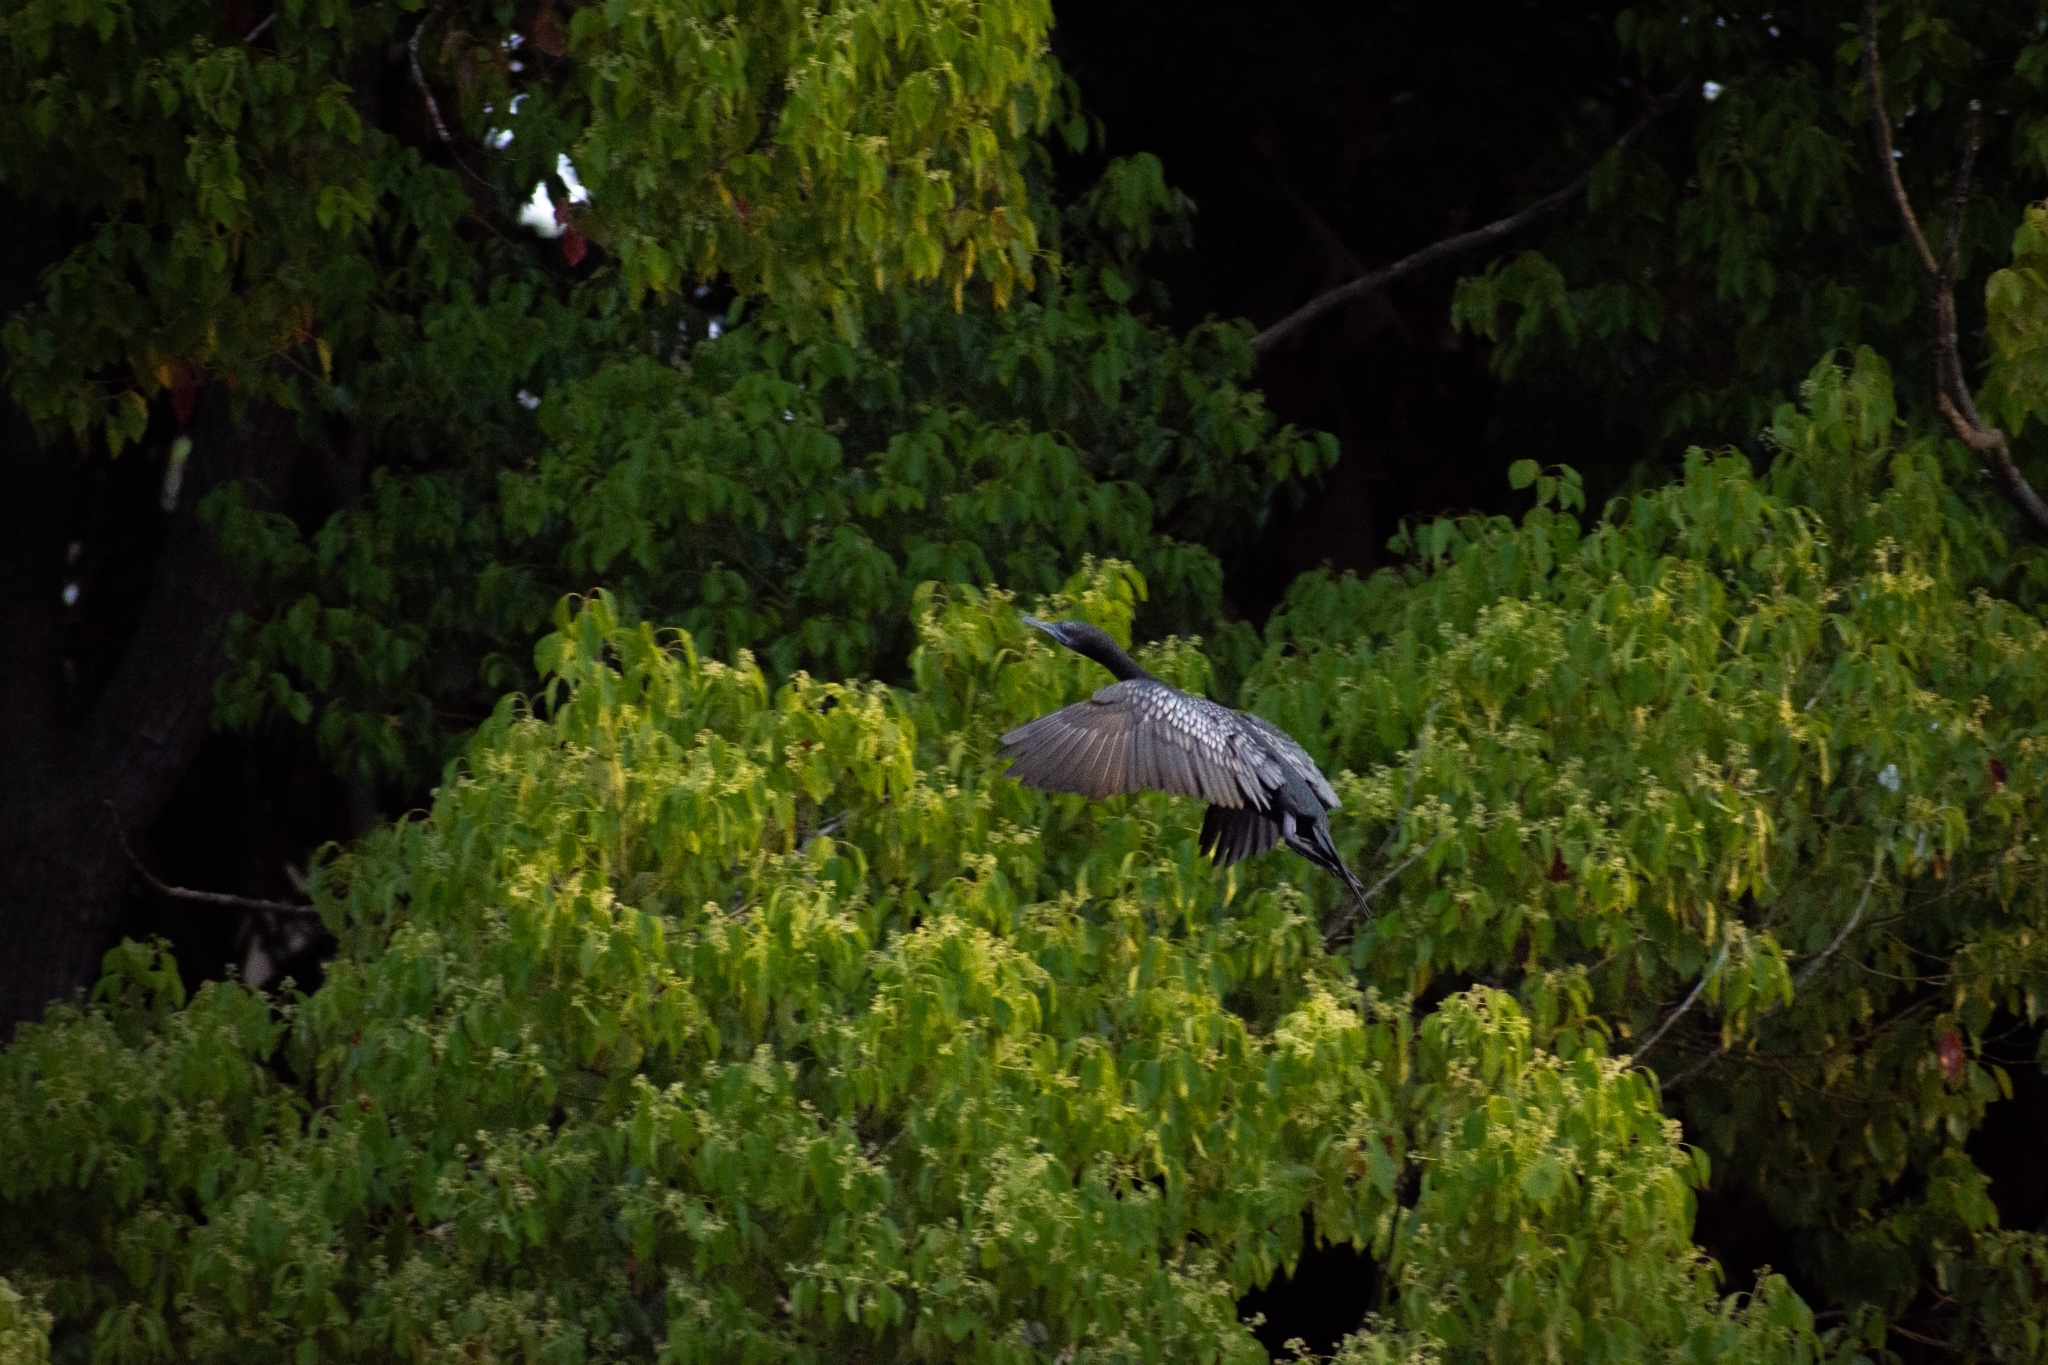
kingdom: Animalia
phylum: Chordata
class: Aves
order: Suliformes
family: Phalacrocoracidae
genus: Phalacrocorax
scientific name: Phalacrocorax sulcirostris
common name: Little black cormorant
